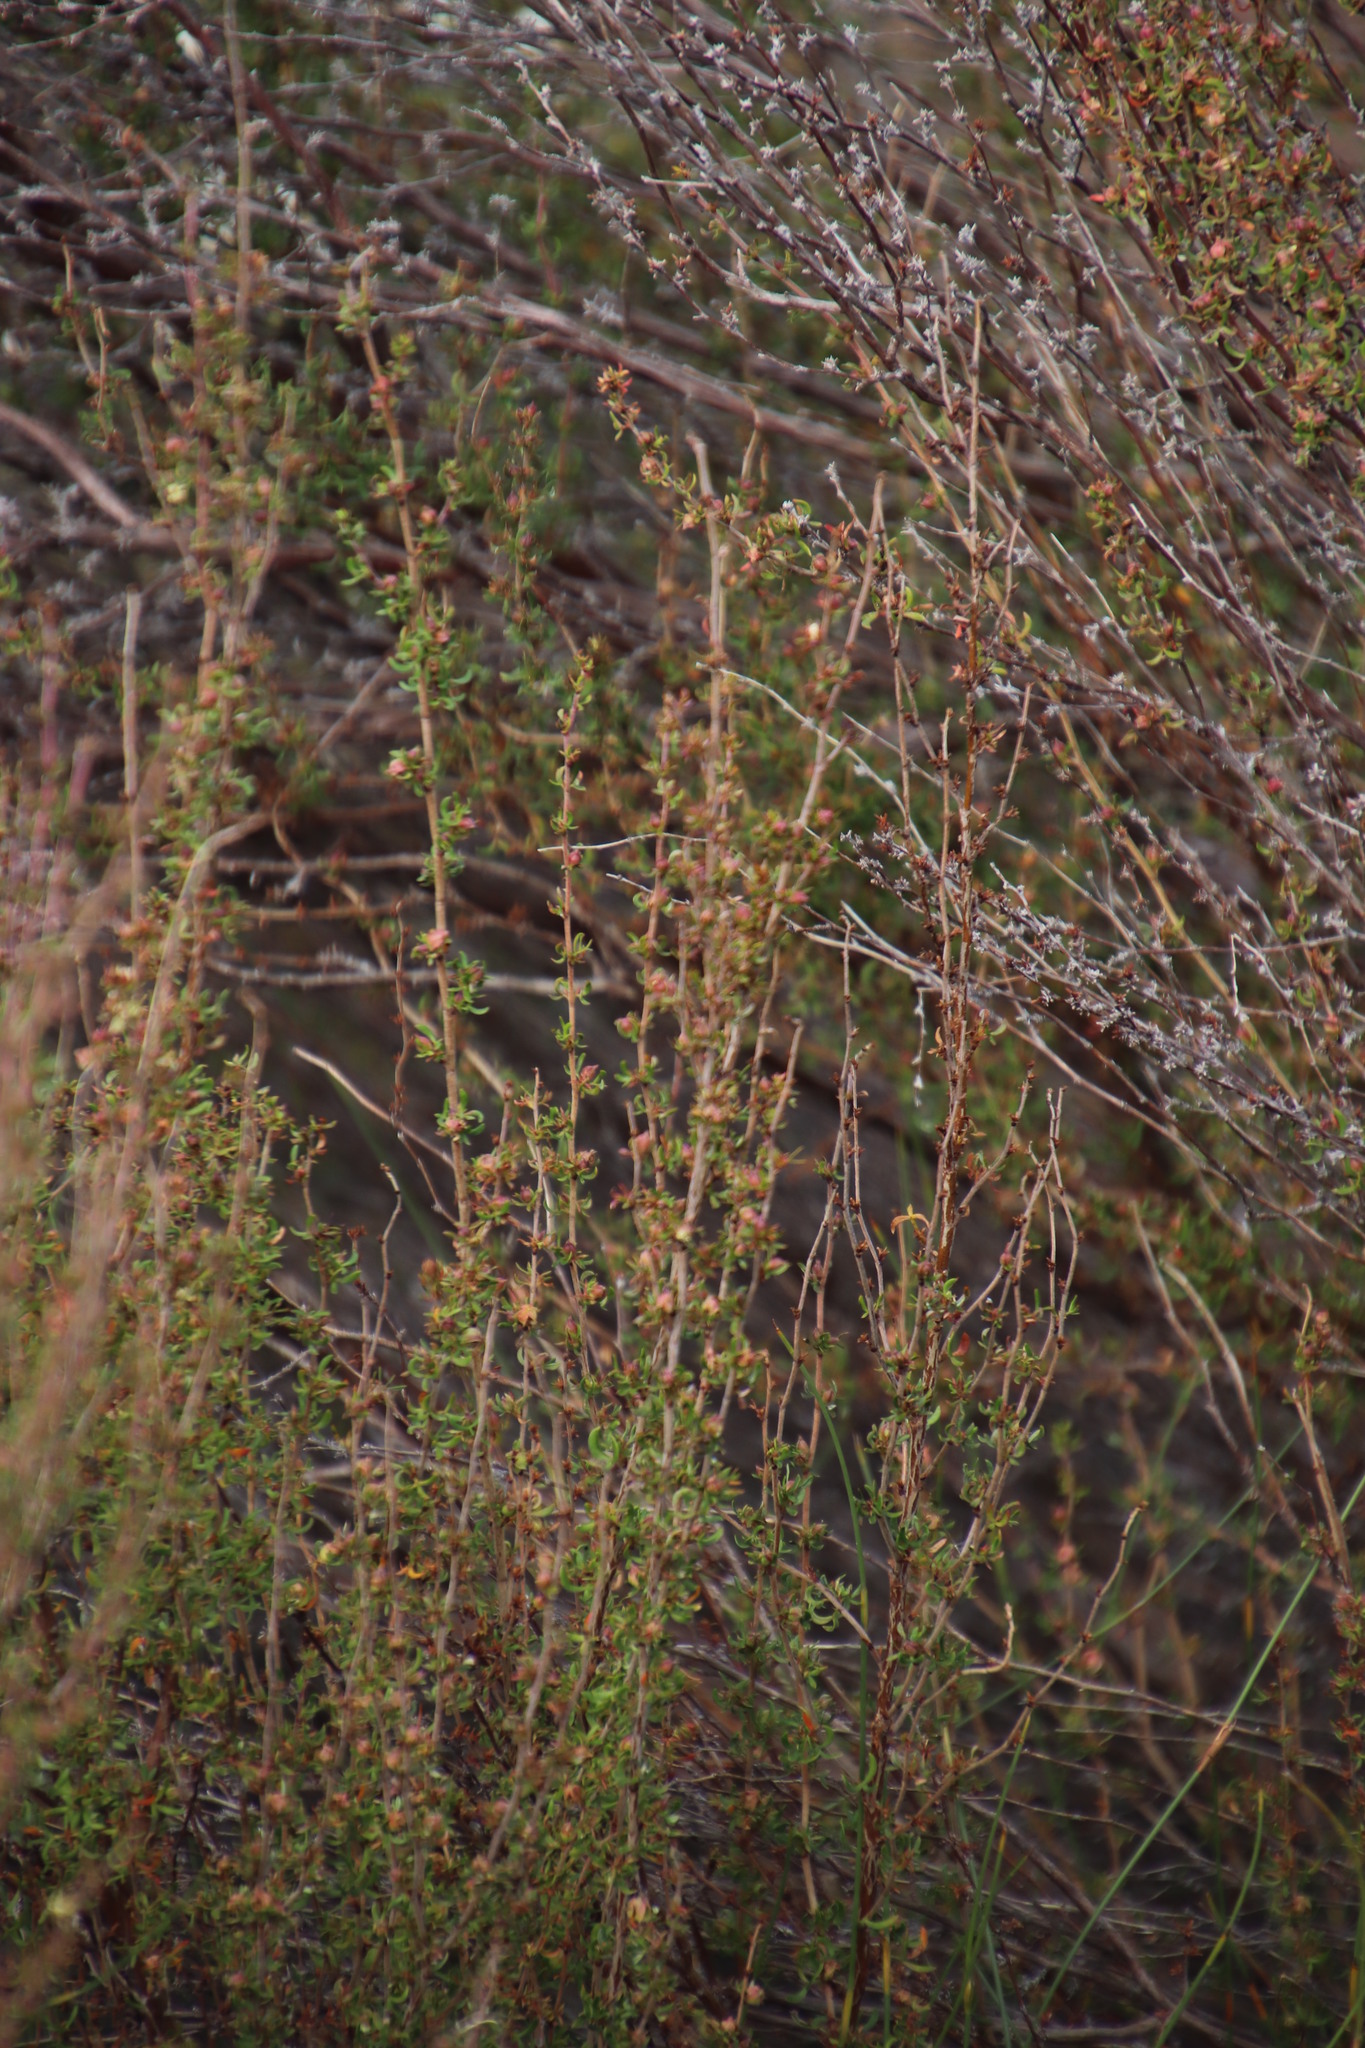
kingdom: Plantae
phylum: Tracheophyta
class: Magnoliopsida
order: Rosales
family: Rosaceae
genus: Cliffortia
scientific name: Cliffortia falcata
